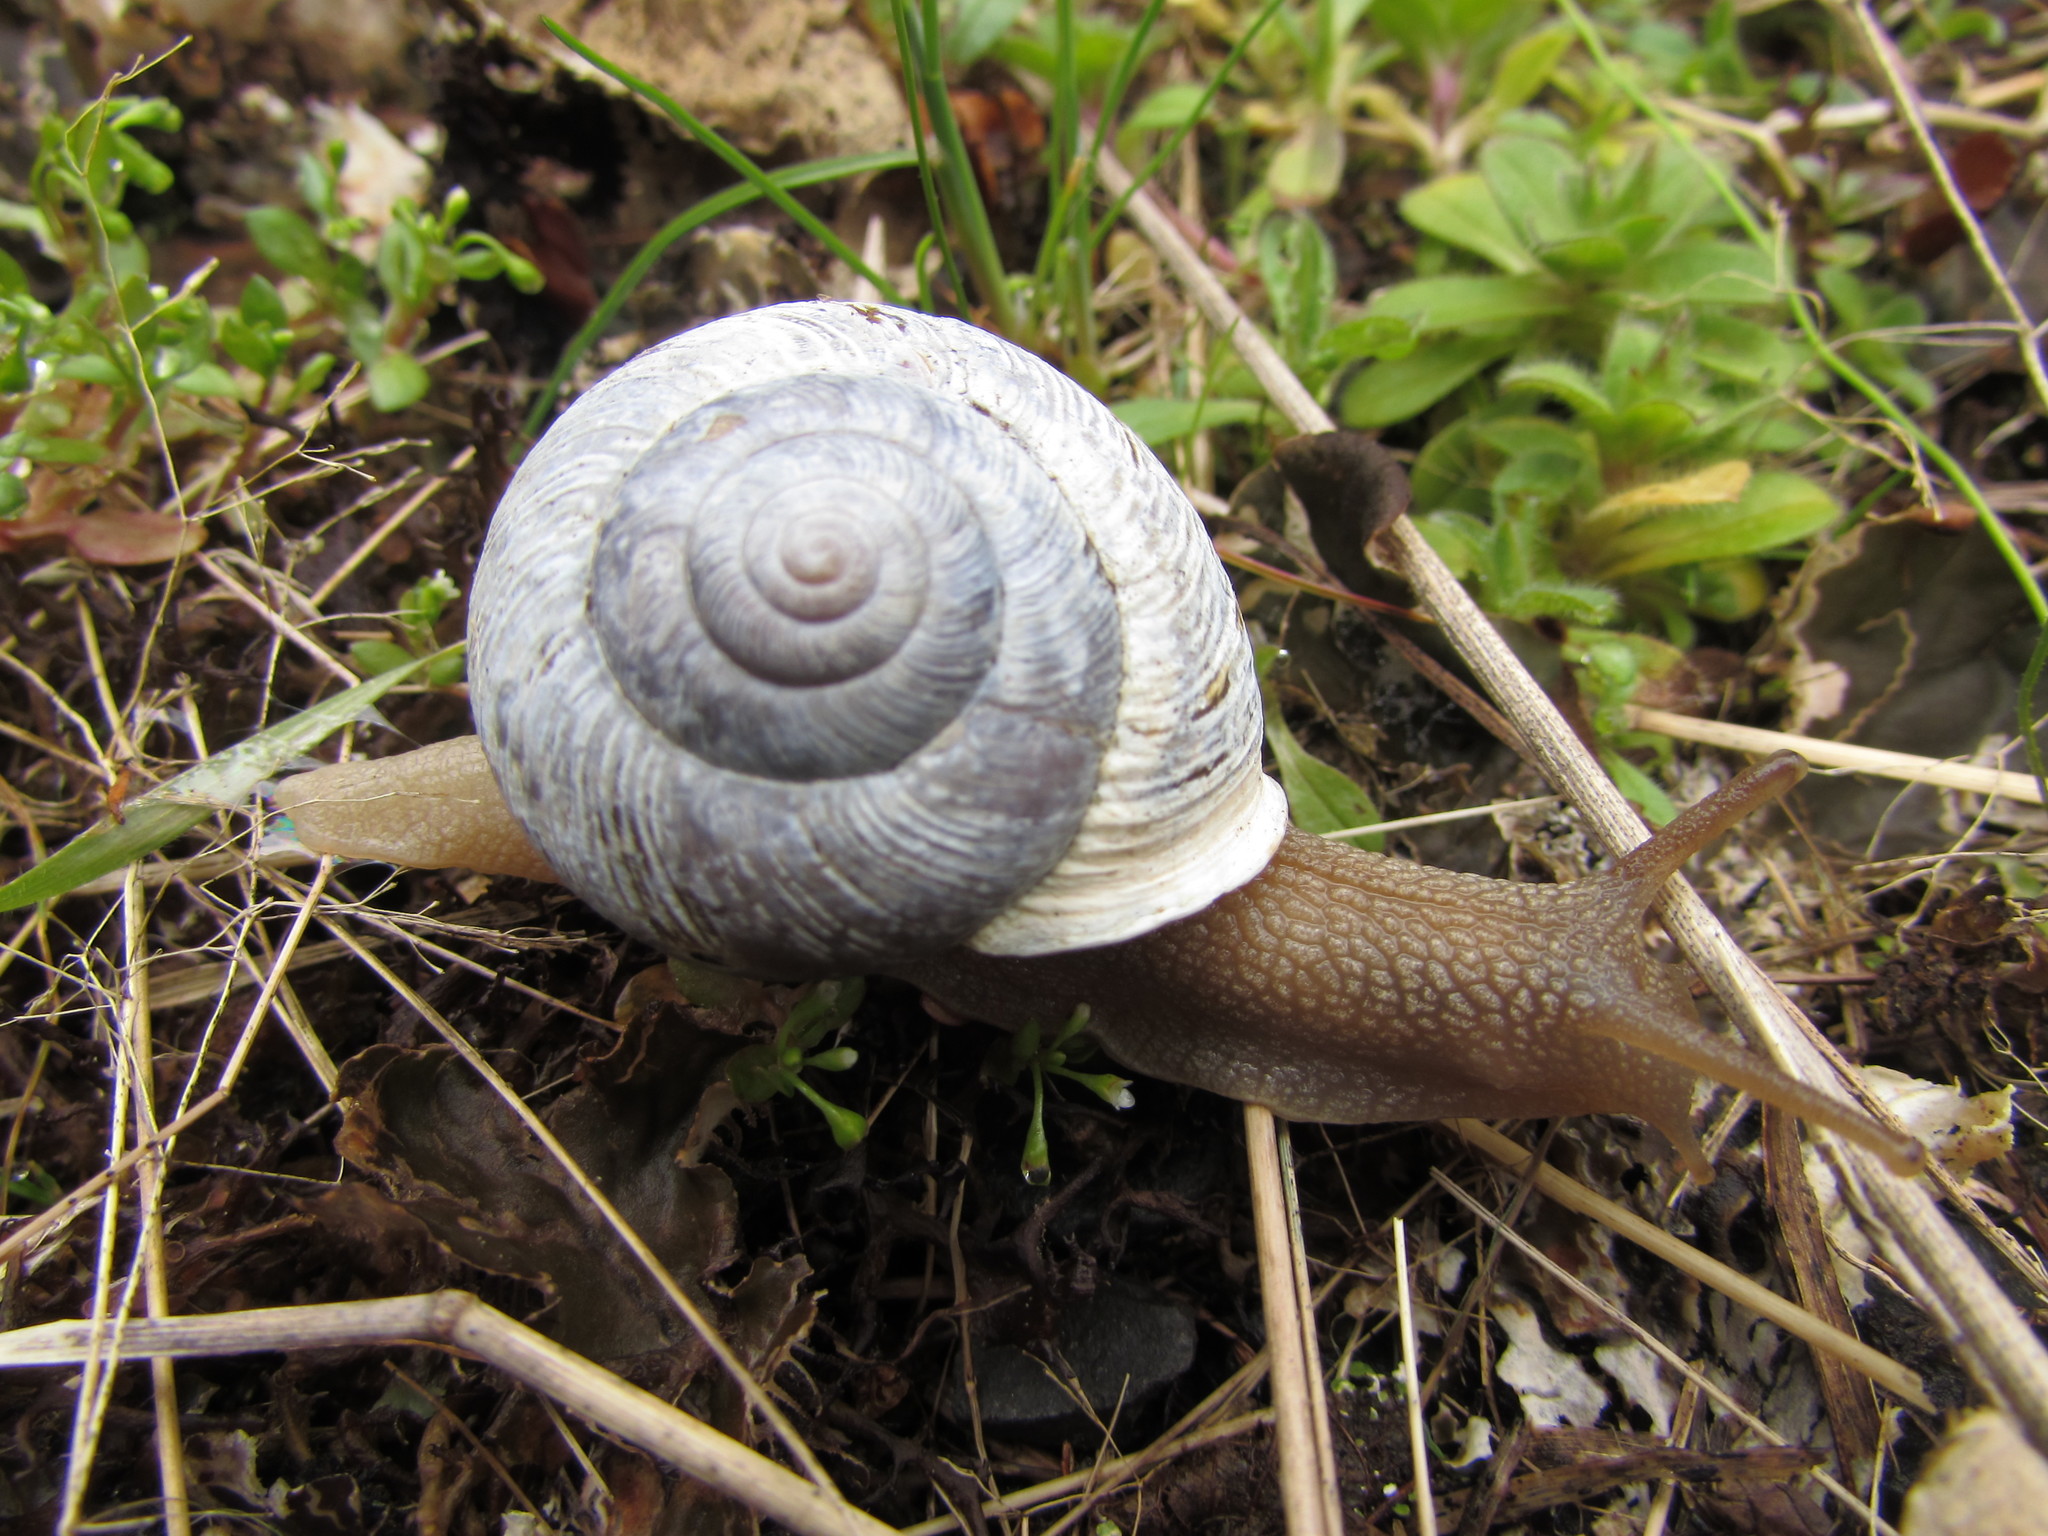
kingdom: Animalia
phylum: Mollusca
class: Gastropoda
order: Stylommatophora
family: Polygyridae
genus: Allogona
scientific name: Allogona townsendiana
